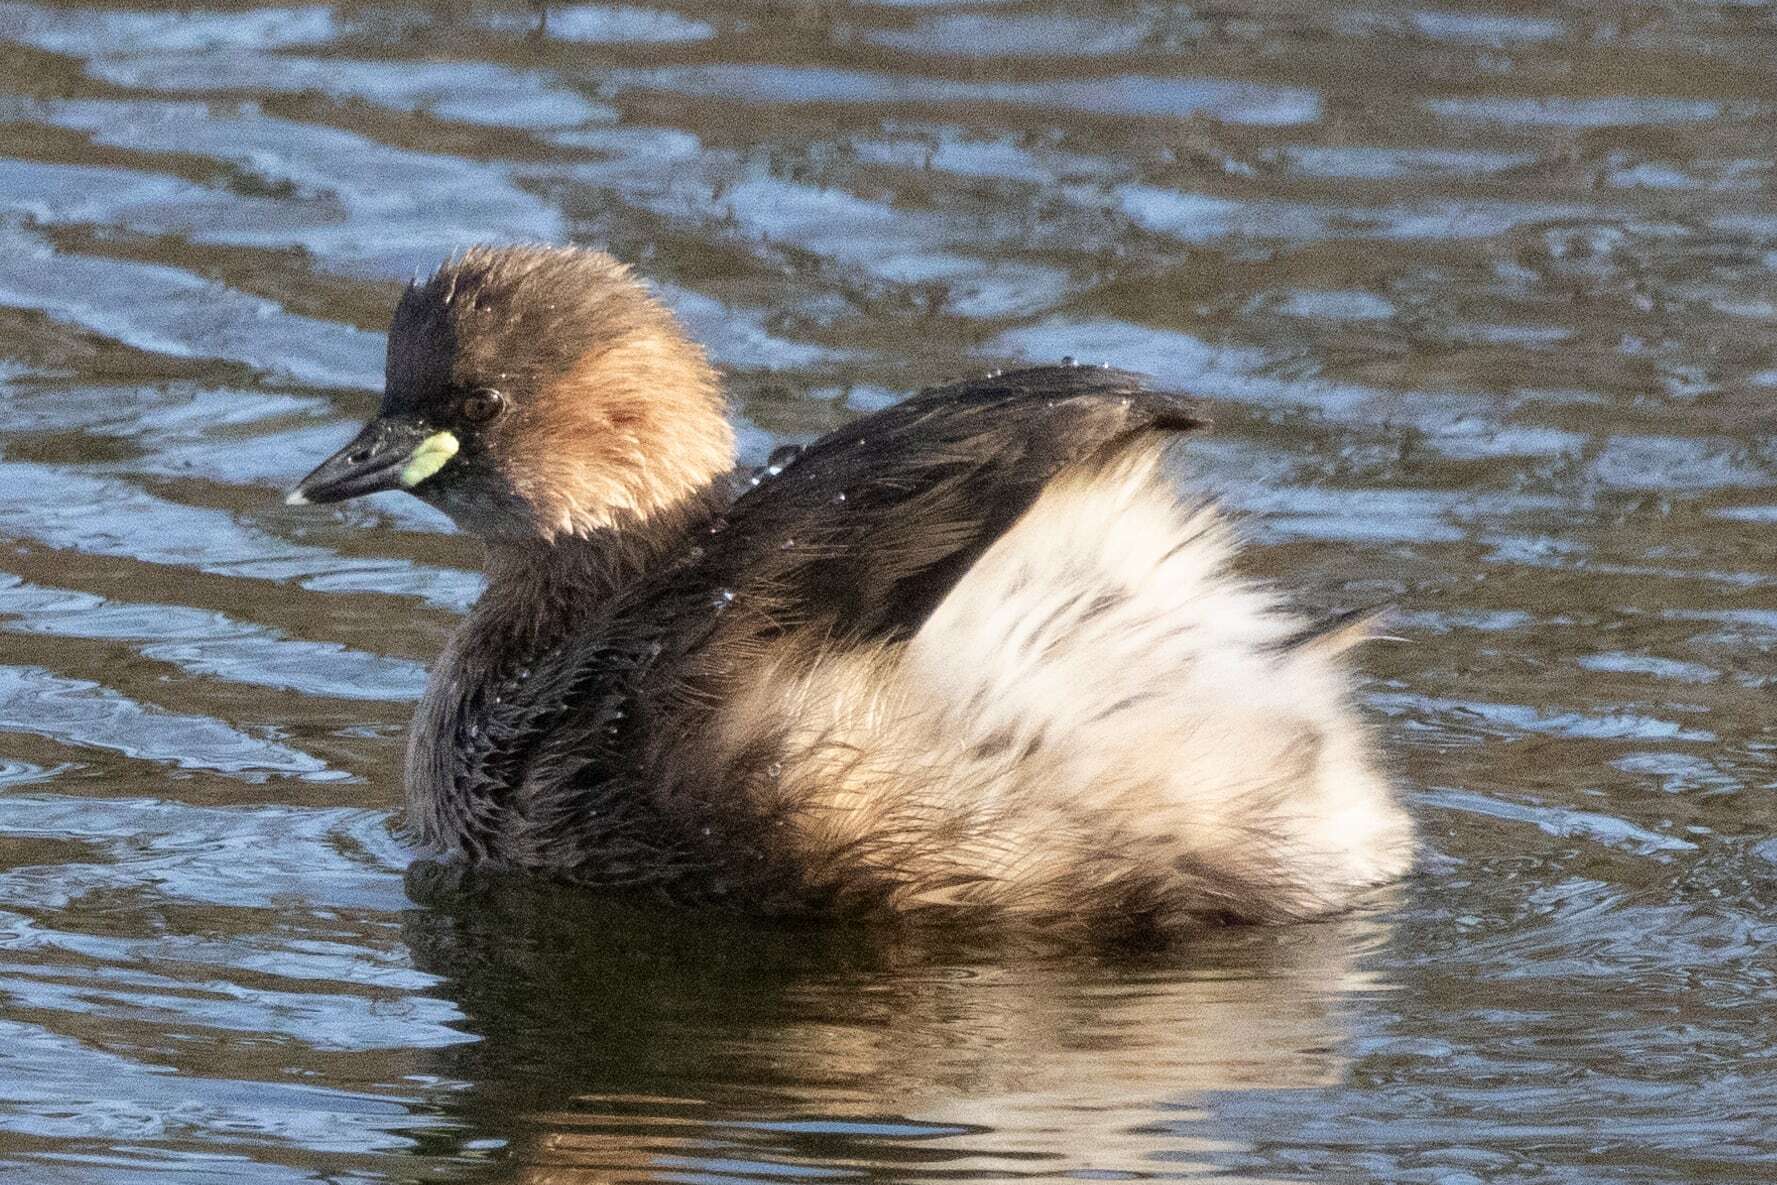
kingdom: Animalia
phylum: Chordata
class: Aves
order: Podicipediformes
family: Podicipedidae
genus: Tachybaptus
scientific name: Tachybaptus ruficollis
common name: Little grebe
